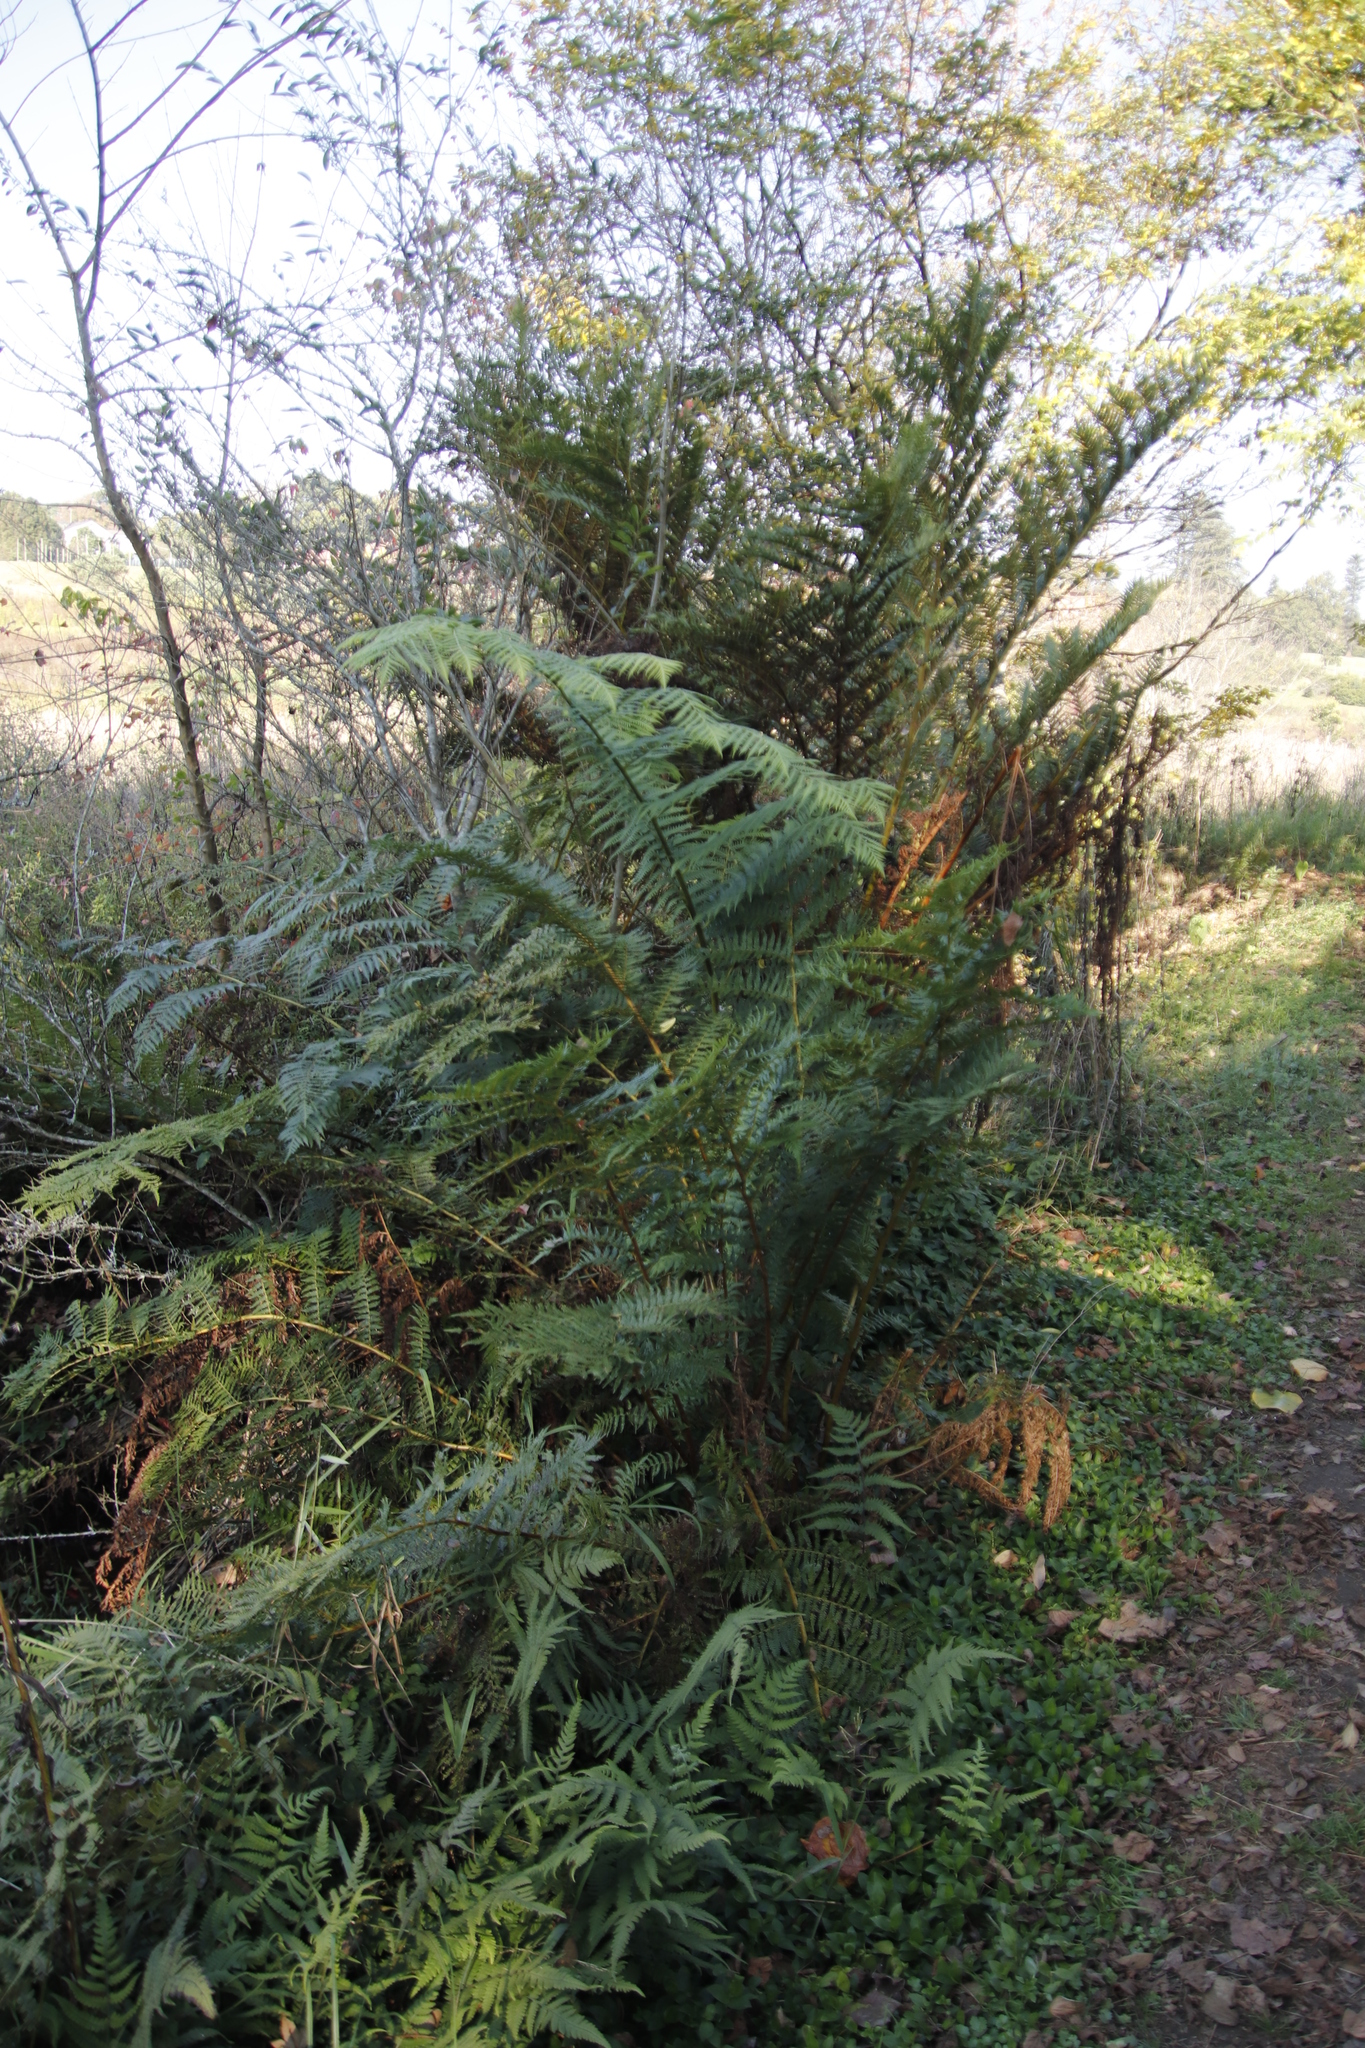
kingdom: Plantae
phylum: Tracheophyta
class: Polypodiopsida
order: Cyatheales
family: Cyatheaceae
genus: Sphaeropteris
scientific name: Sphaeropteris cooperi
